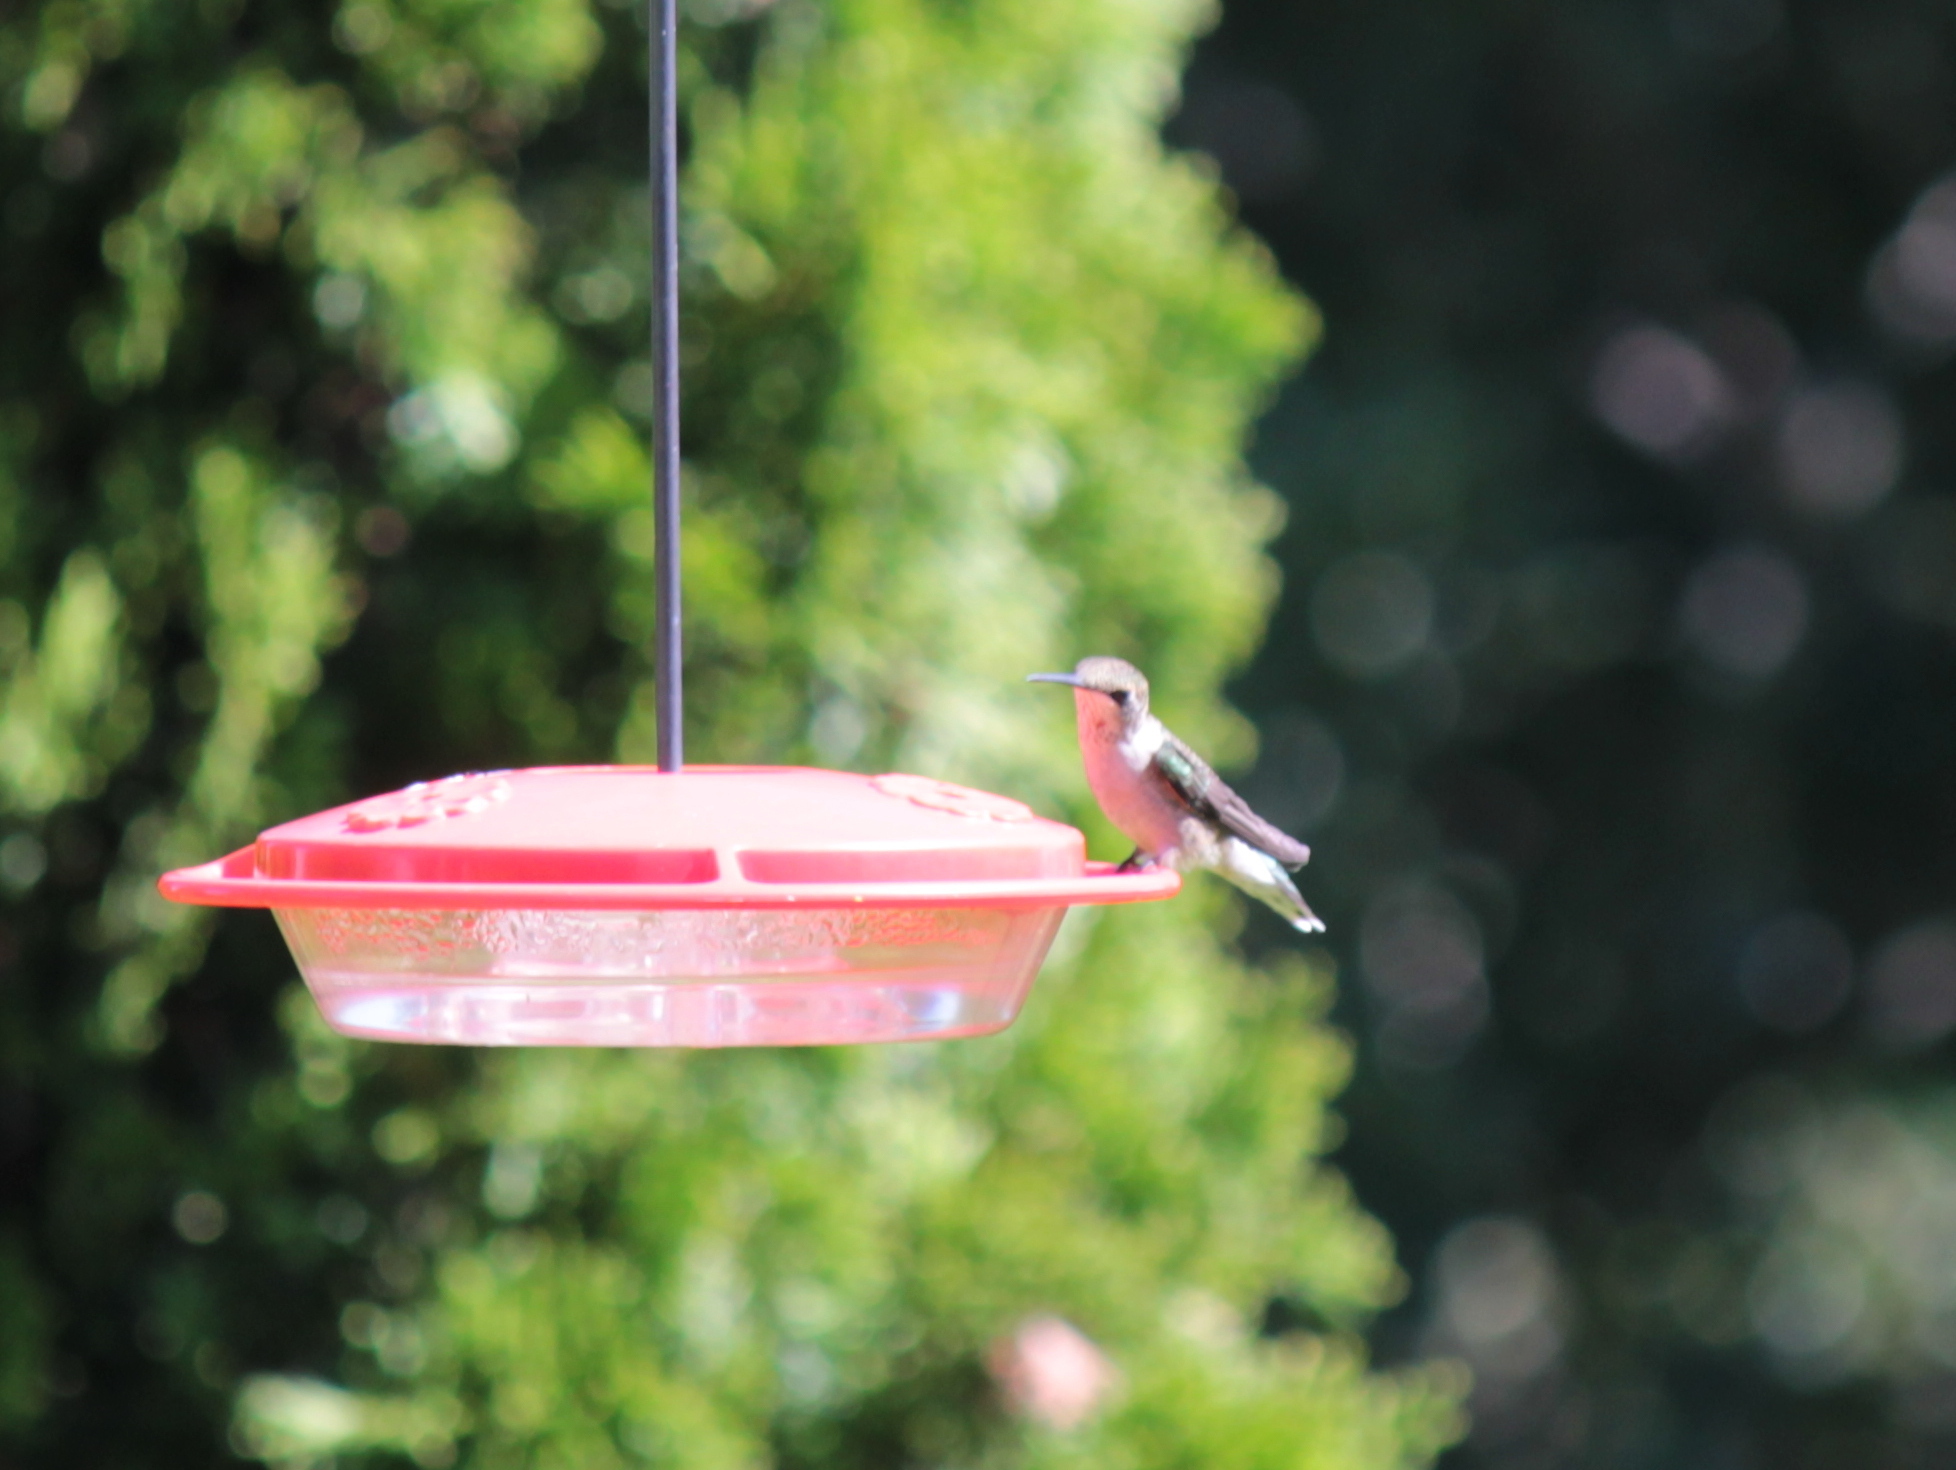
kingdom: Animalia
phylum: Chordata
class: Aves
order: Apodiformes
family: Trochilidae
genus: Archilochus
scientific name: Archilochus colubris
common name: Ruby-throated hummingbird
